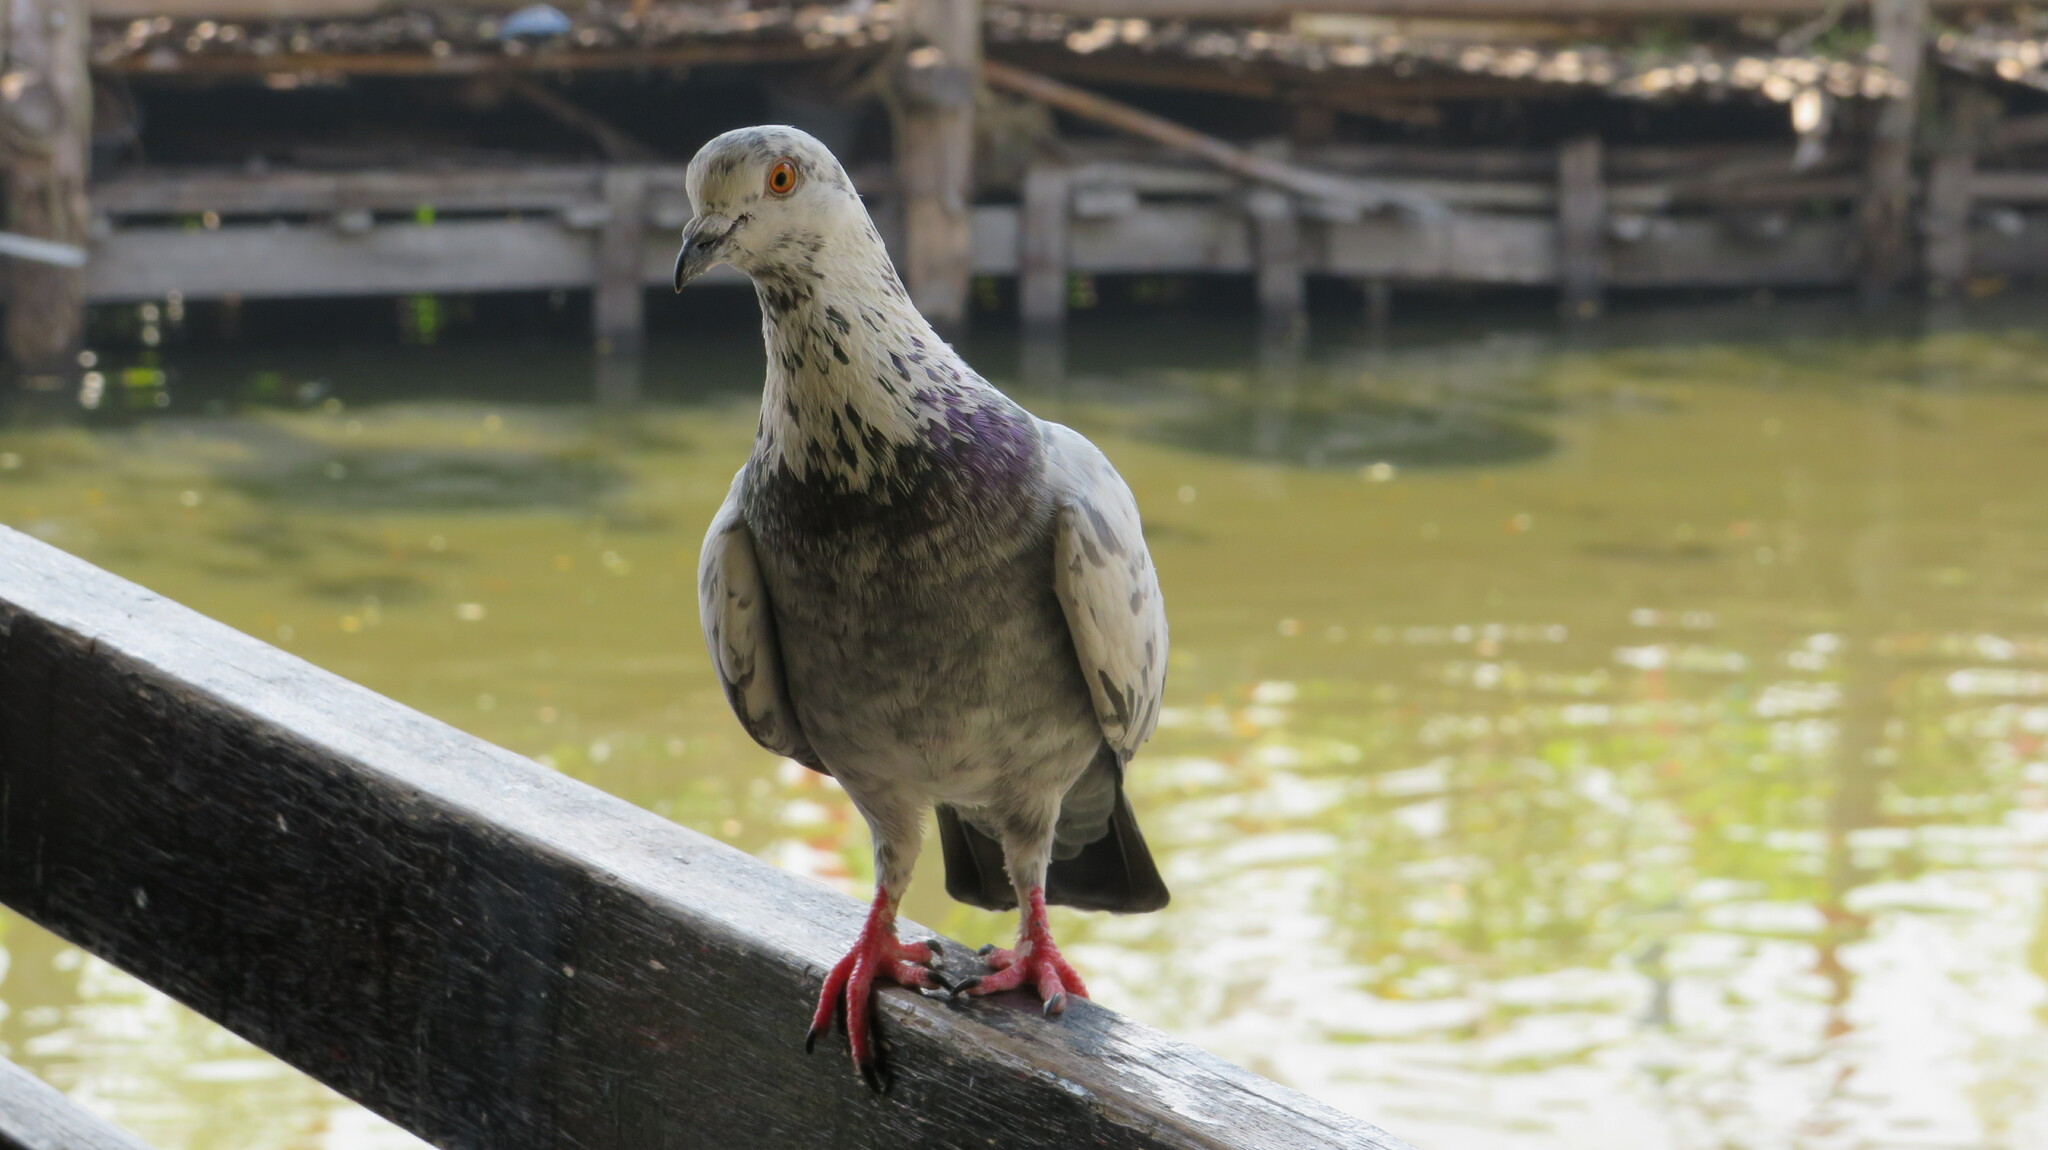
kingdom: Animalia
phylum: Chordata
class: Aves
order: Columbiformes
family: Columbidae
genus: Columba
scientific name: Columba livia
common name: Rock pigeon
